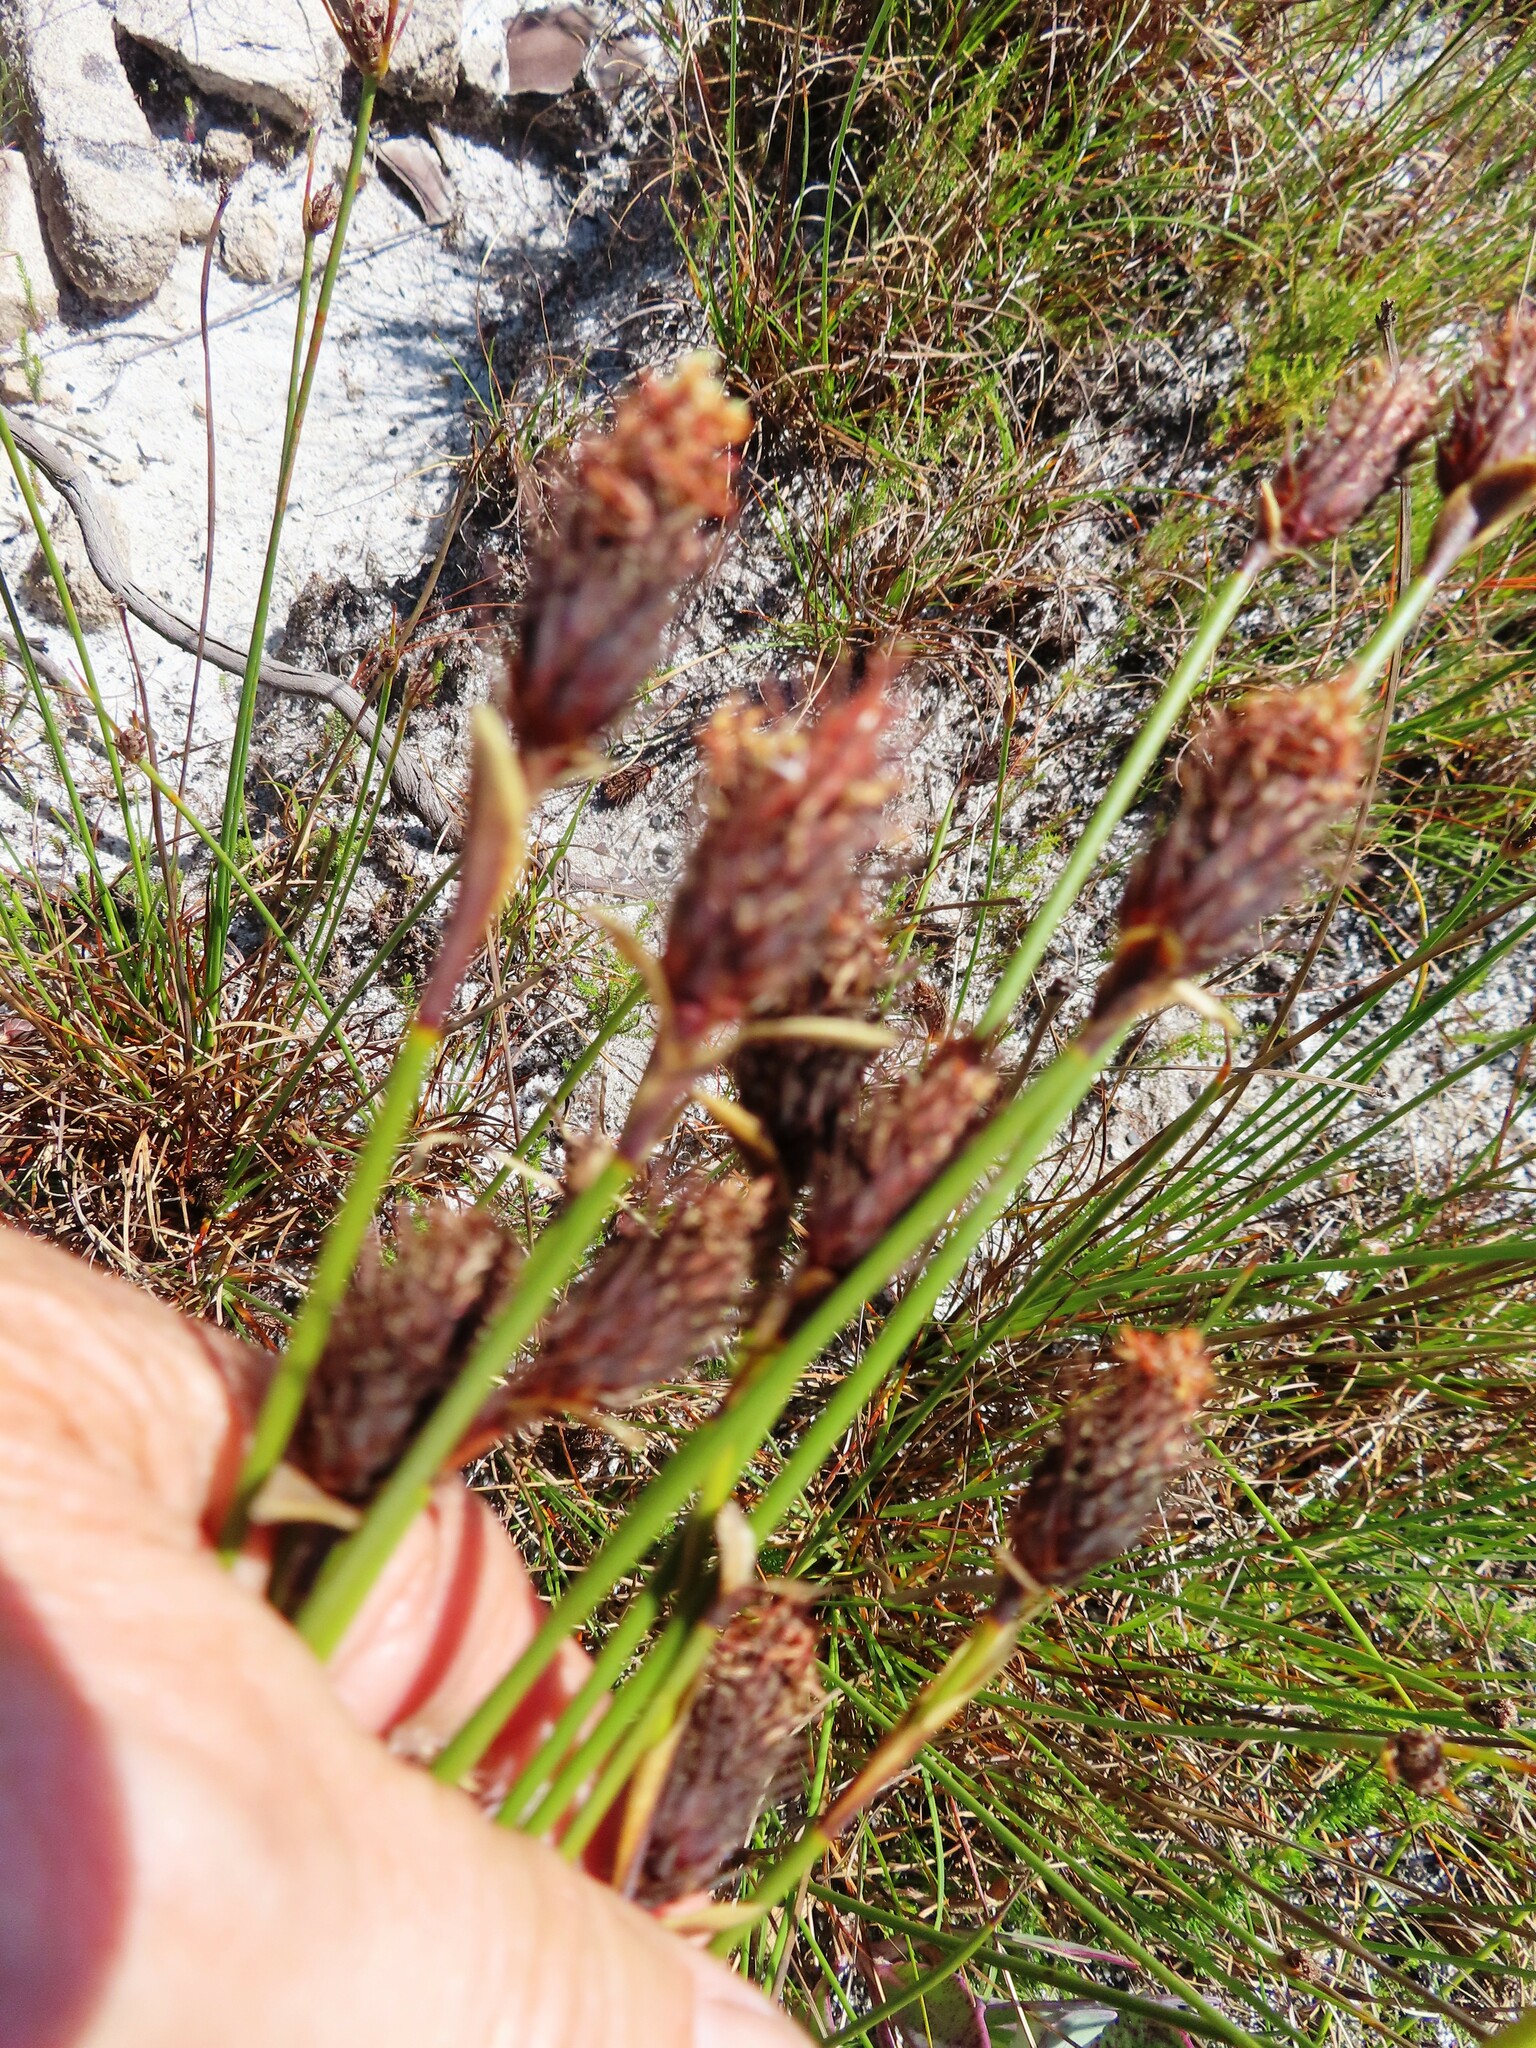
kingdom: Plantae
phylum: Tracheophyta
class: Liliopsida
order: Poales
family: Restionaceae
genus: Hypodiscus
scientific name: Hypodiscus aristatus
